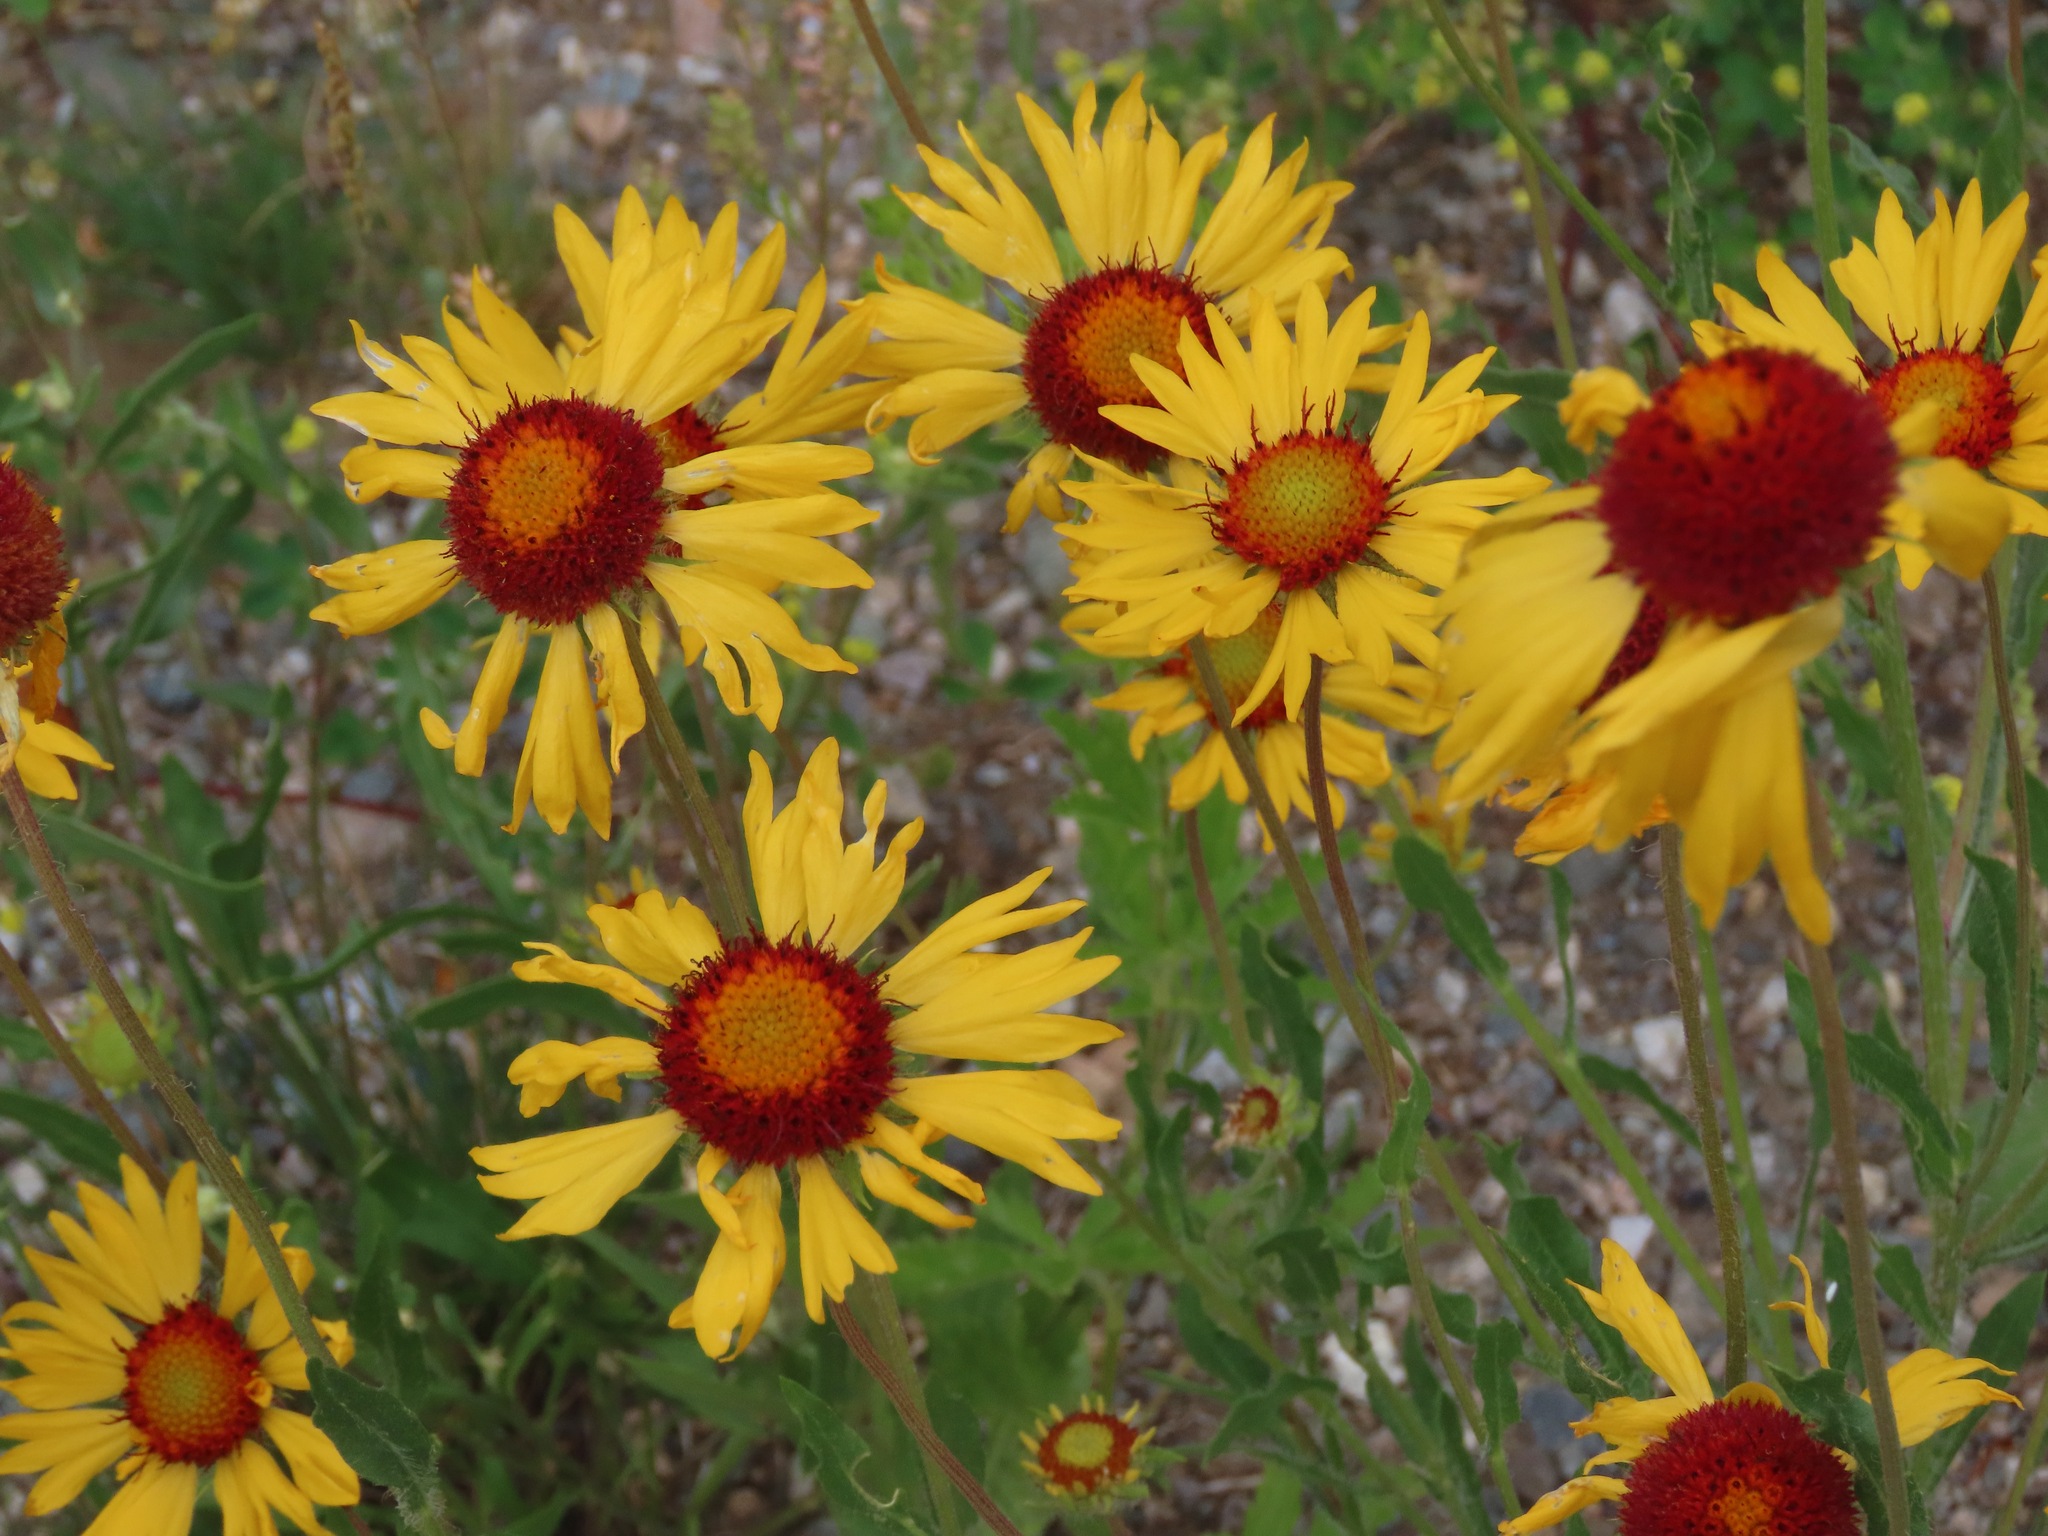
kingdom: Plantae
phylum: Tracheophyta
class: Magnoliopsida
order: Asterales
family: Asteraceae
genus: Gaillardia
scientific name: Gaillardia aristata
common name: Blanket-flower
